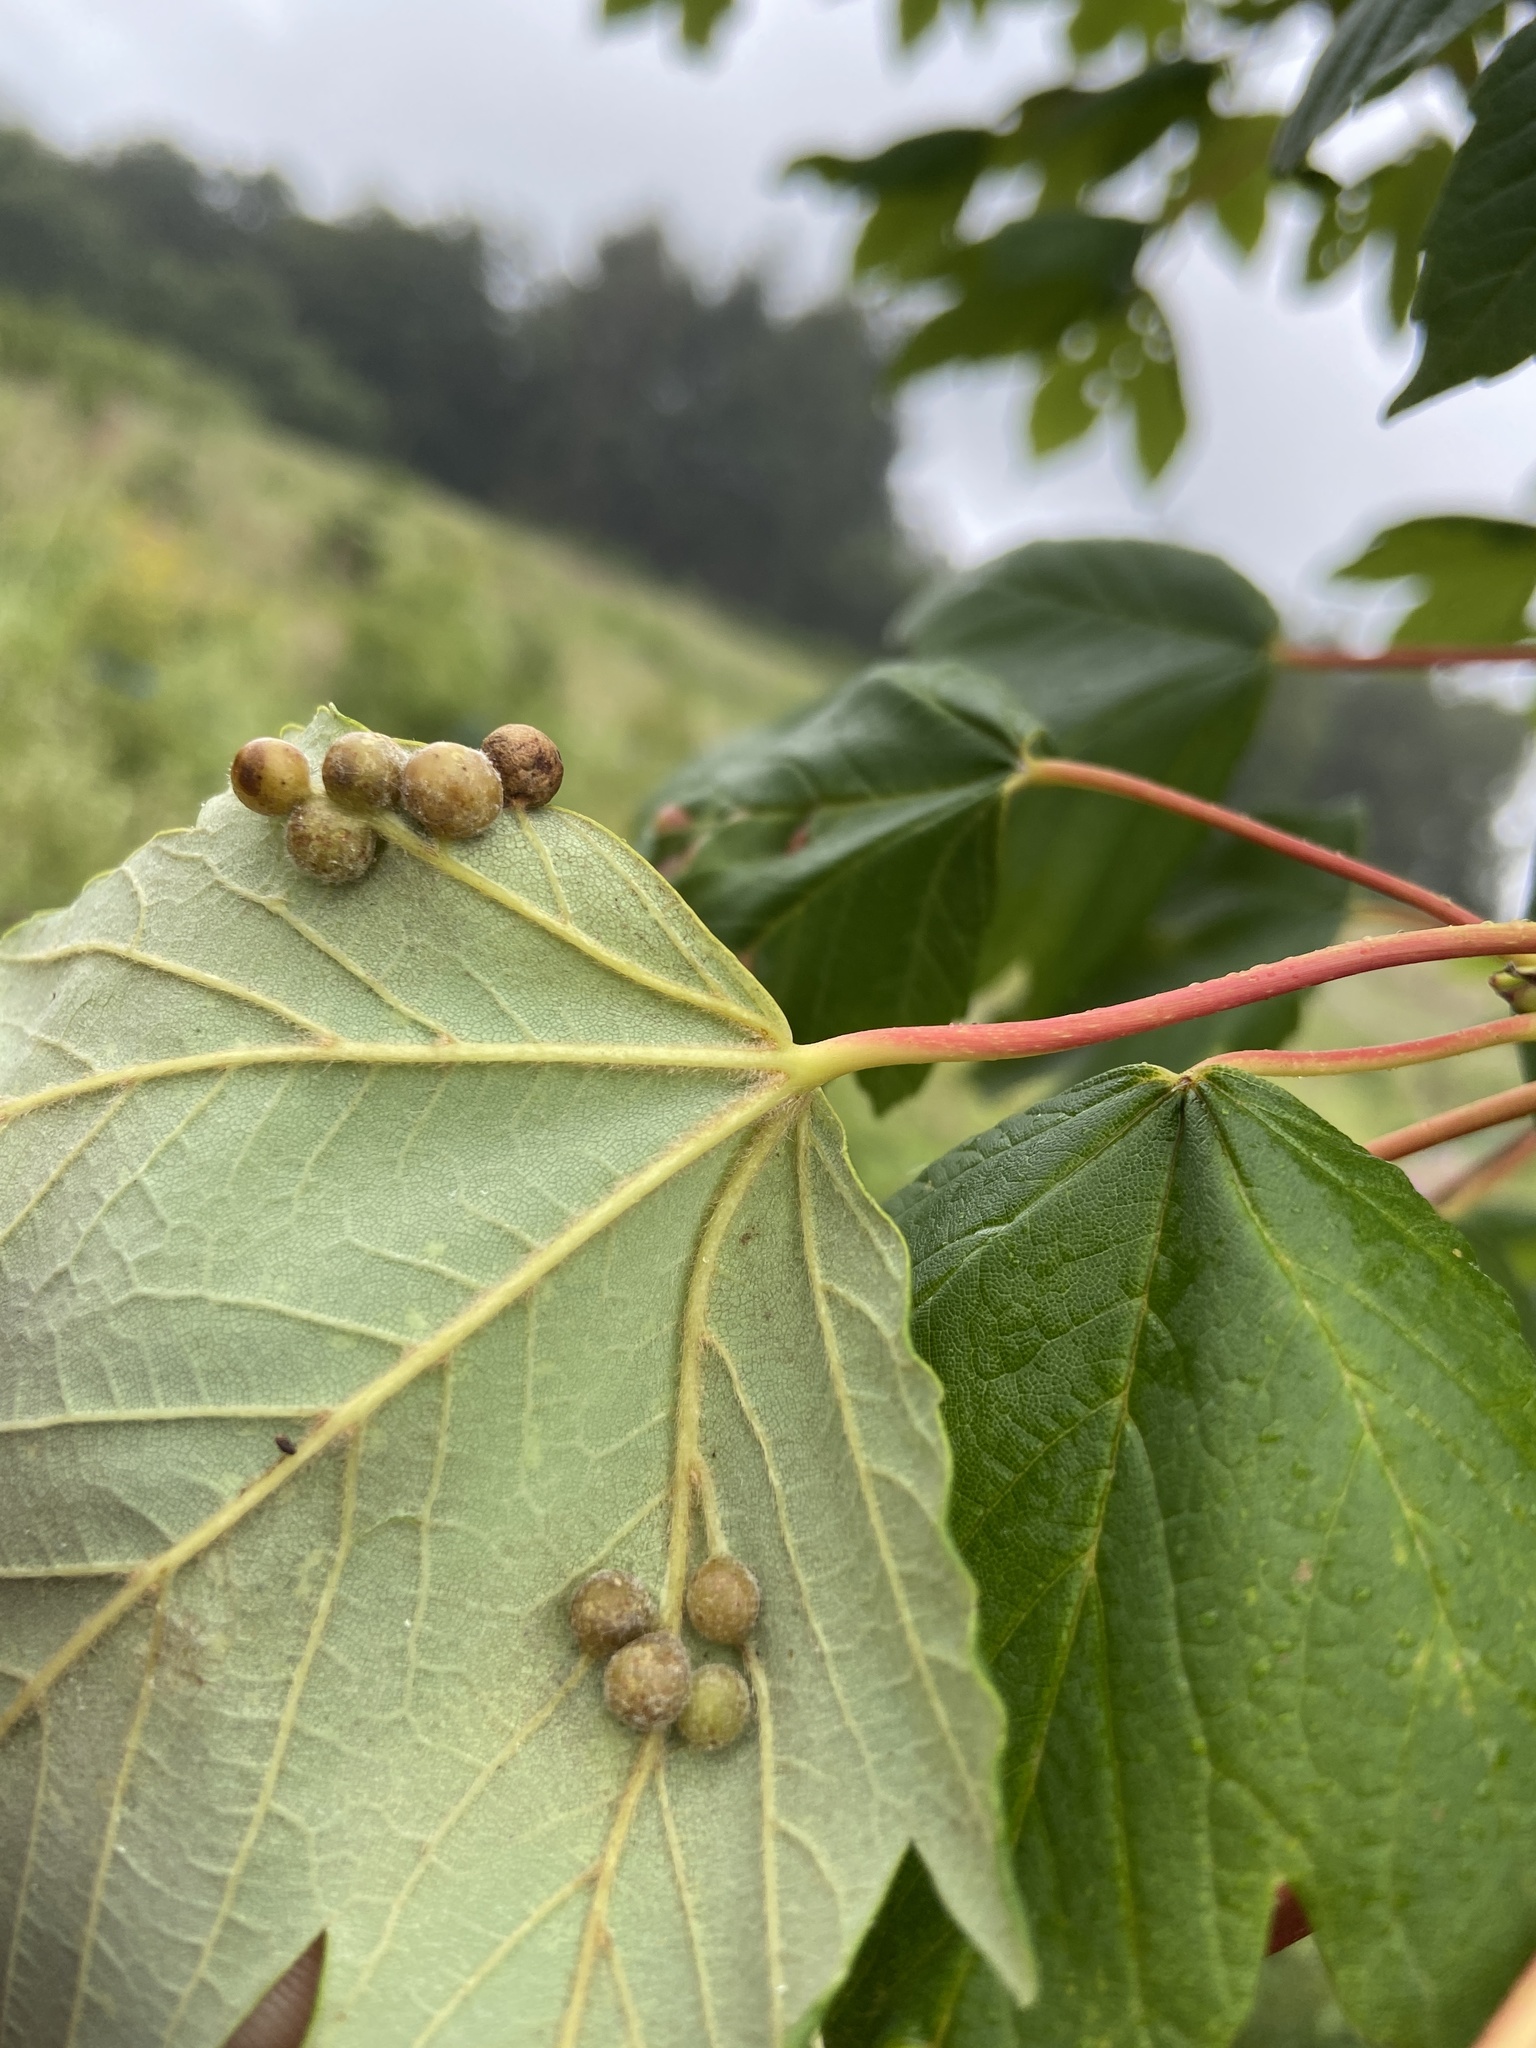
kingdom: Animalia
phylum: Arthropoda
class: Insecta
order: Hymenoptera
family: Cynipidae
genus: Pediaspis
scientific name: Pediaspis aceris
